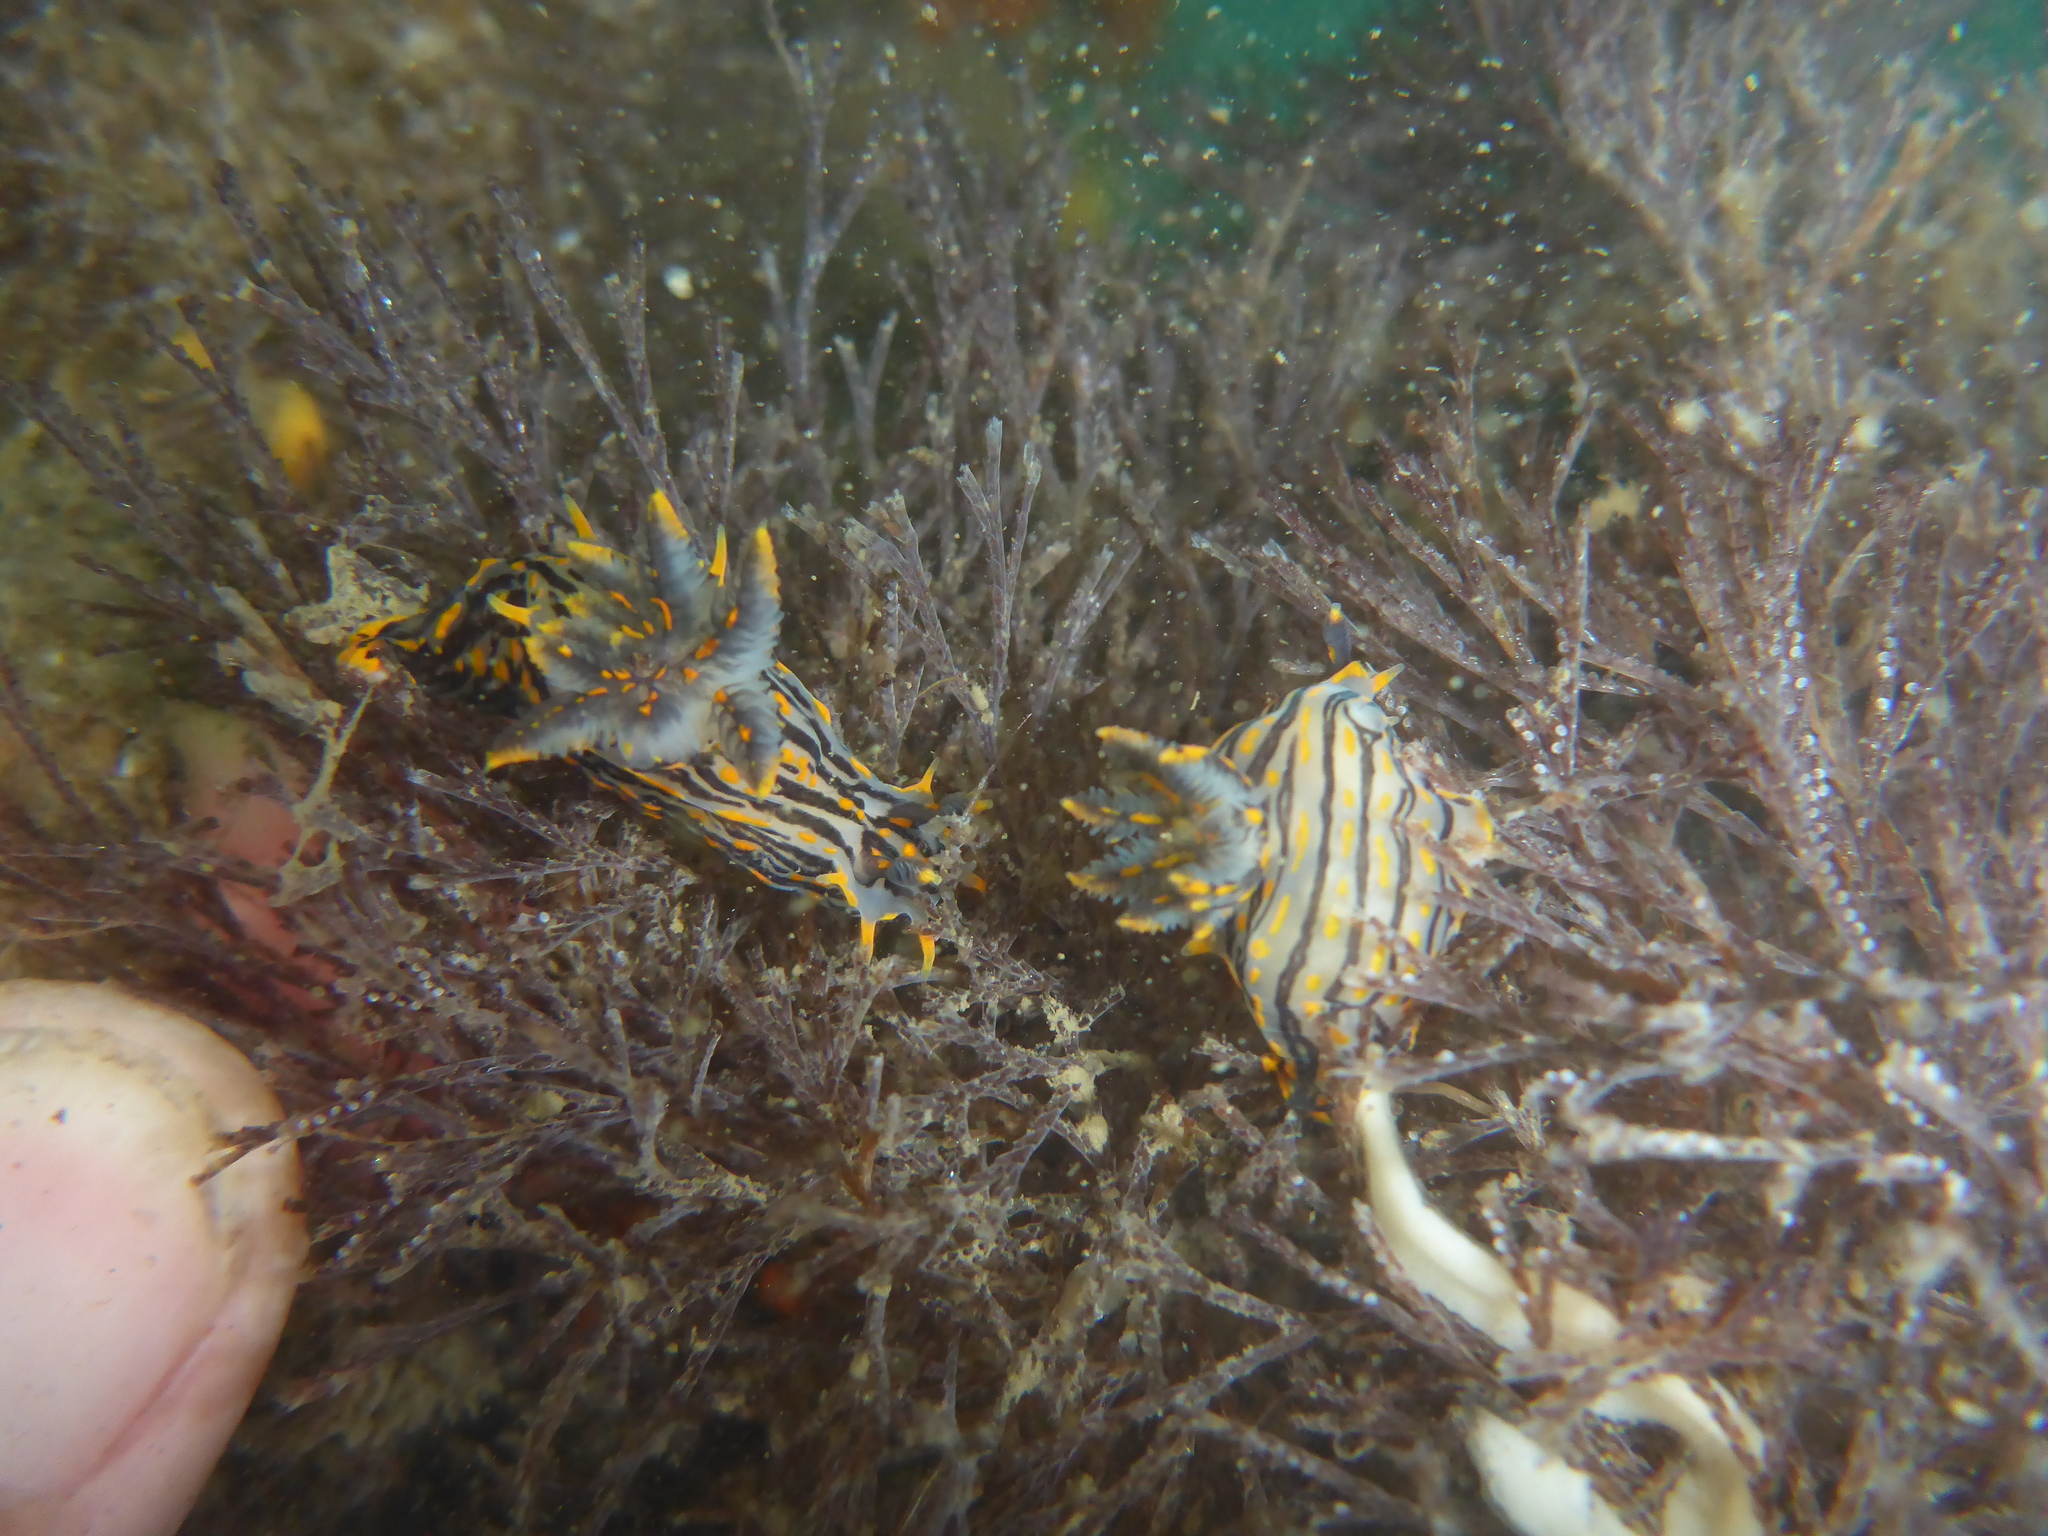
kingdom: Animalia
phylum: Mollusca
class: Gastropoda
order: Nudibranchia
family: Polyceridae
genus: Polycera
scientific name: Polycera atra
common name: Orange-spike polycera
